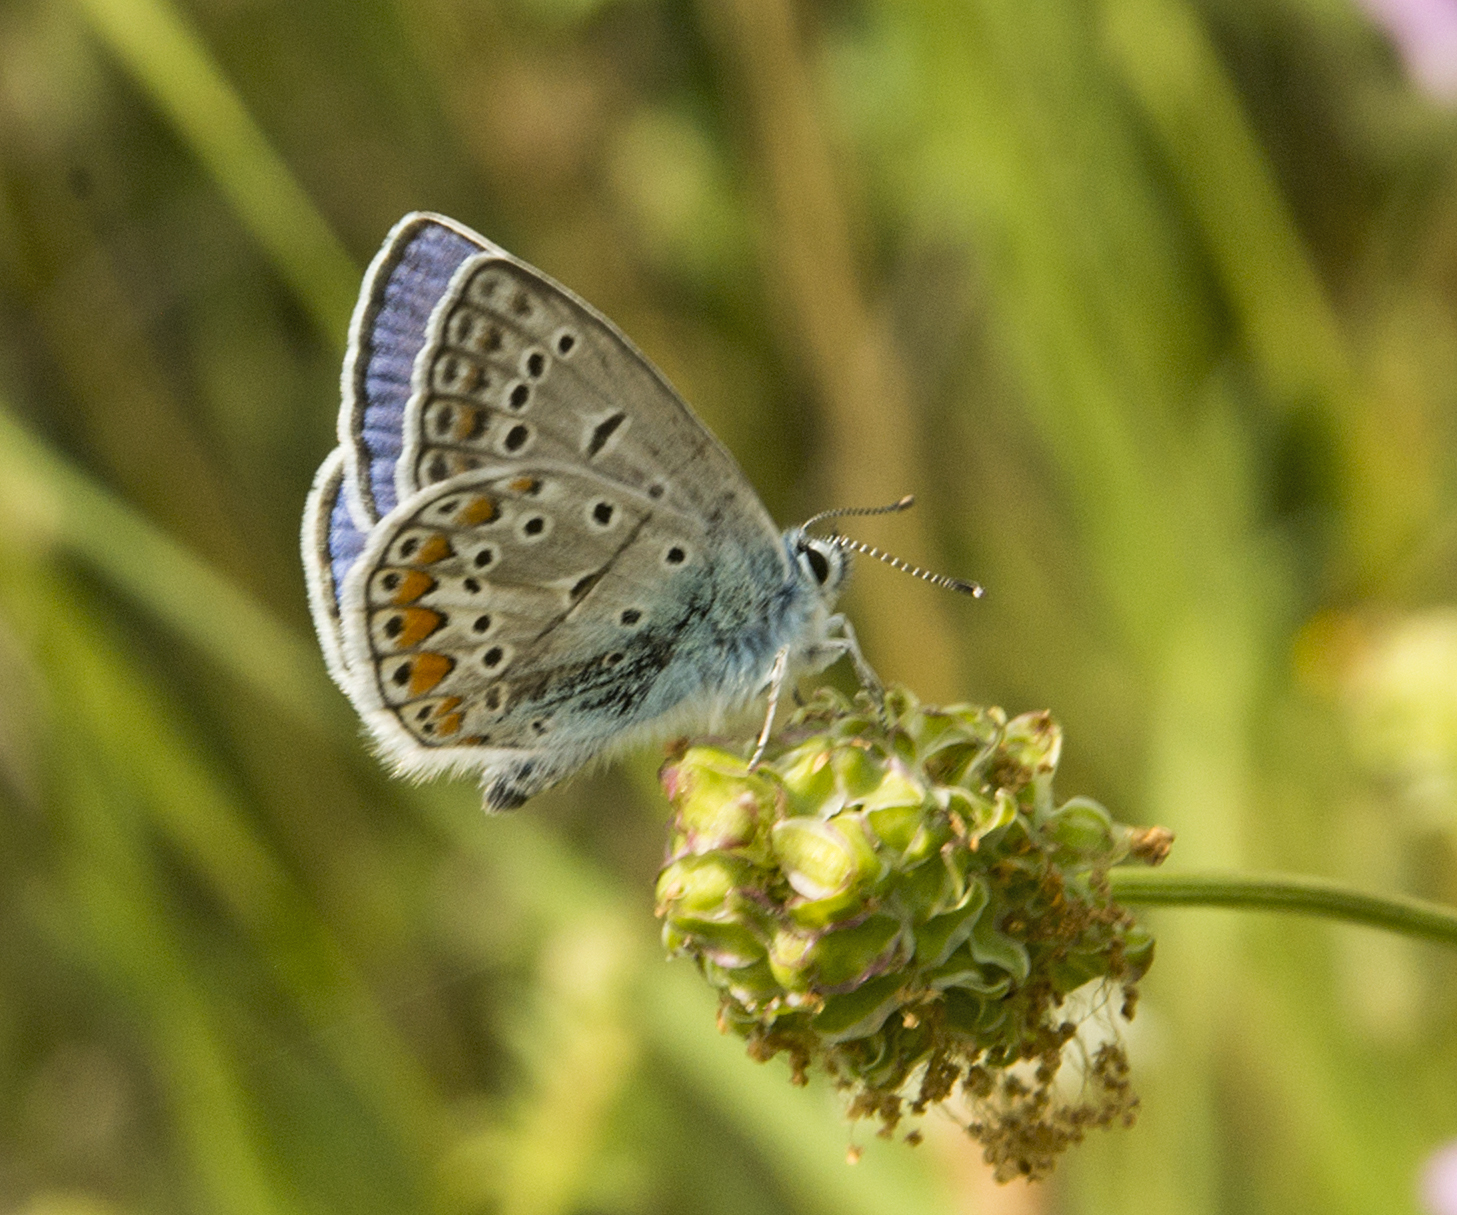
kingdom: Animalia
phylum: Arthropoda
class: Insecta
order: Lepidoptera
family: Lycaenidae
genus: Polyommatus
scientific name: Polyommatus icarus
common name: Common blue
